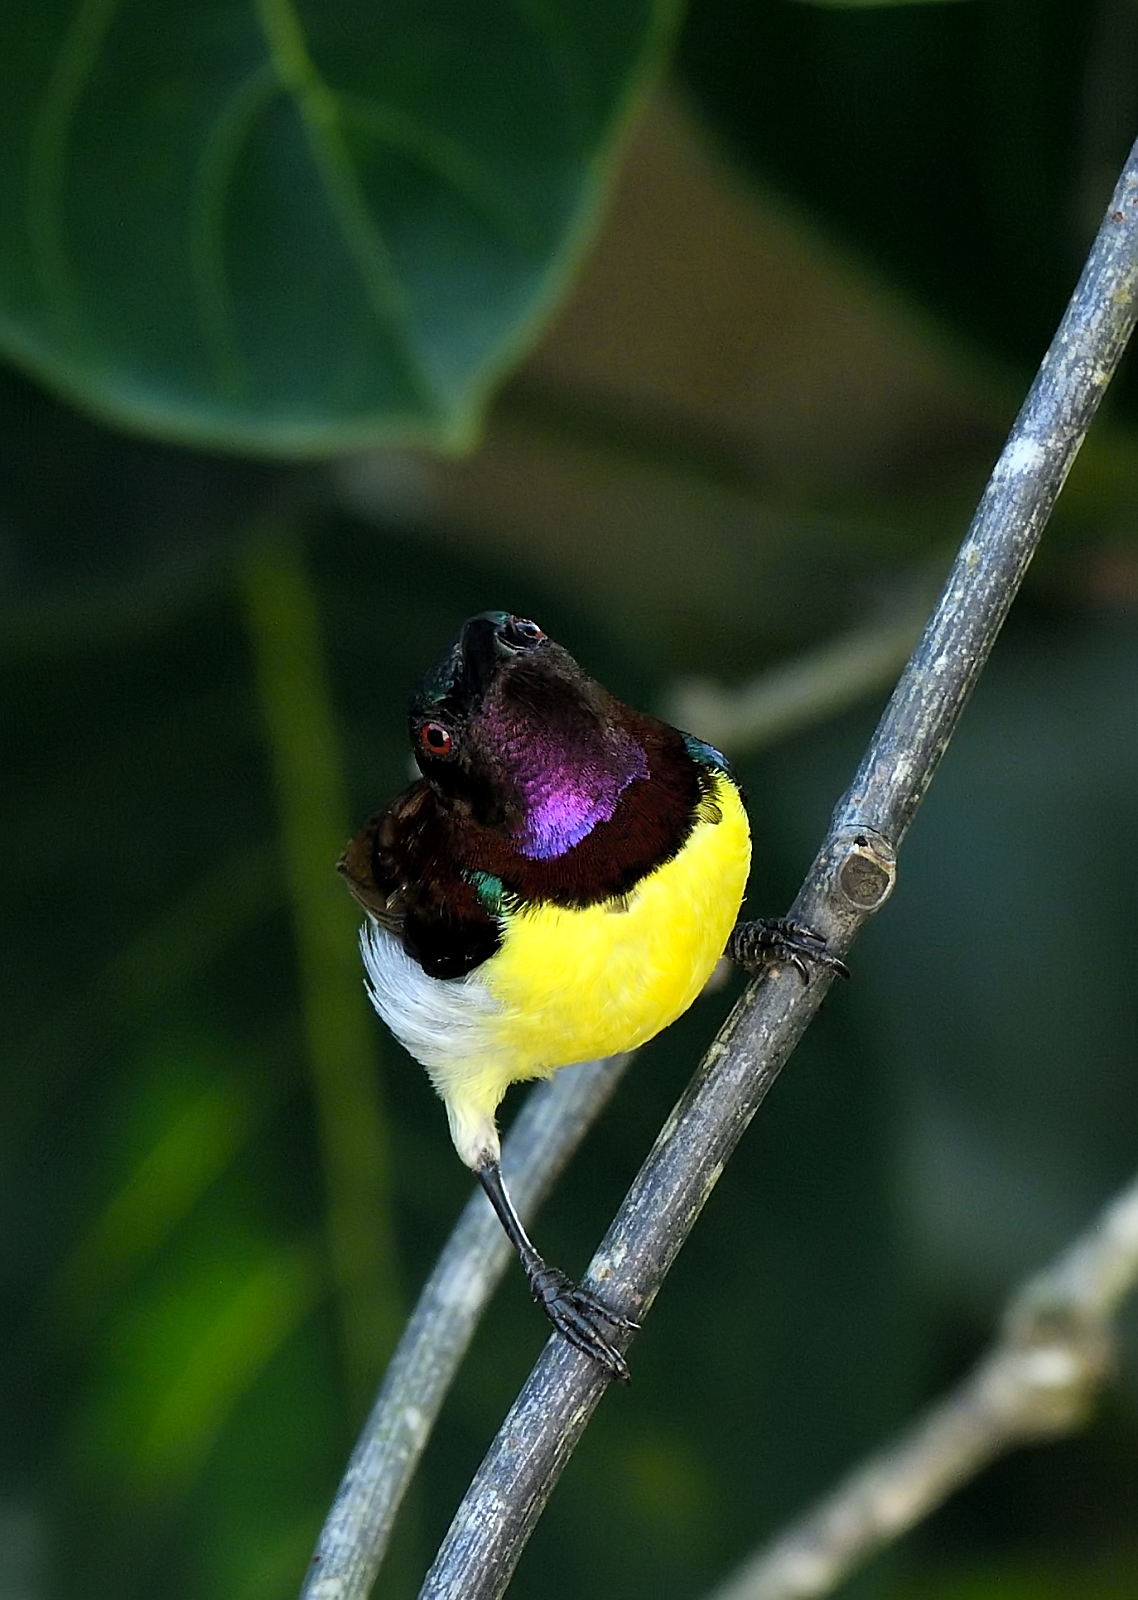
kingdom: Animalia
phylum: Chordata
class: Aves
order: Passeriformes
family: Nectariniidae
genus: Leptocoma
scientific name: Leptocoma zeylonica
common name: Purple-rumped sunbird
